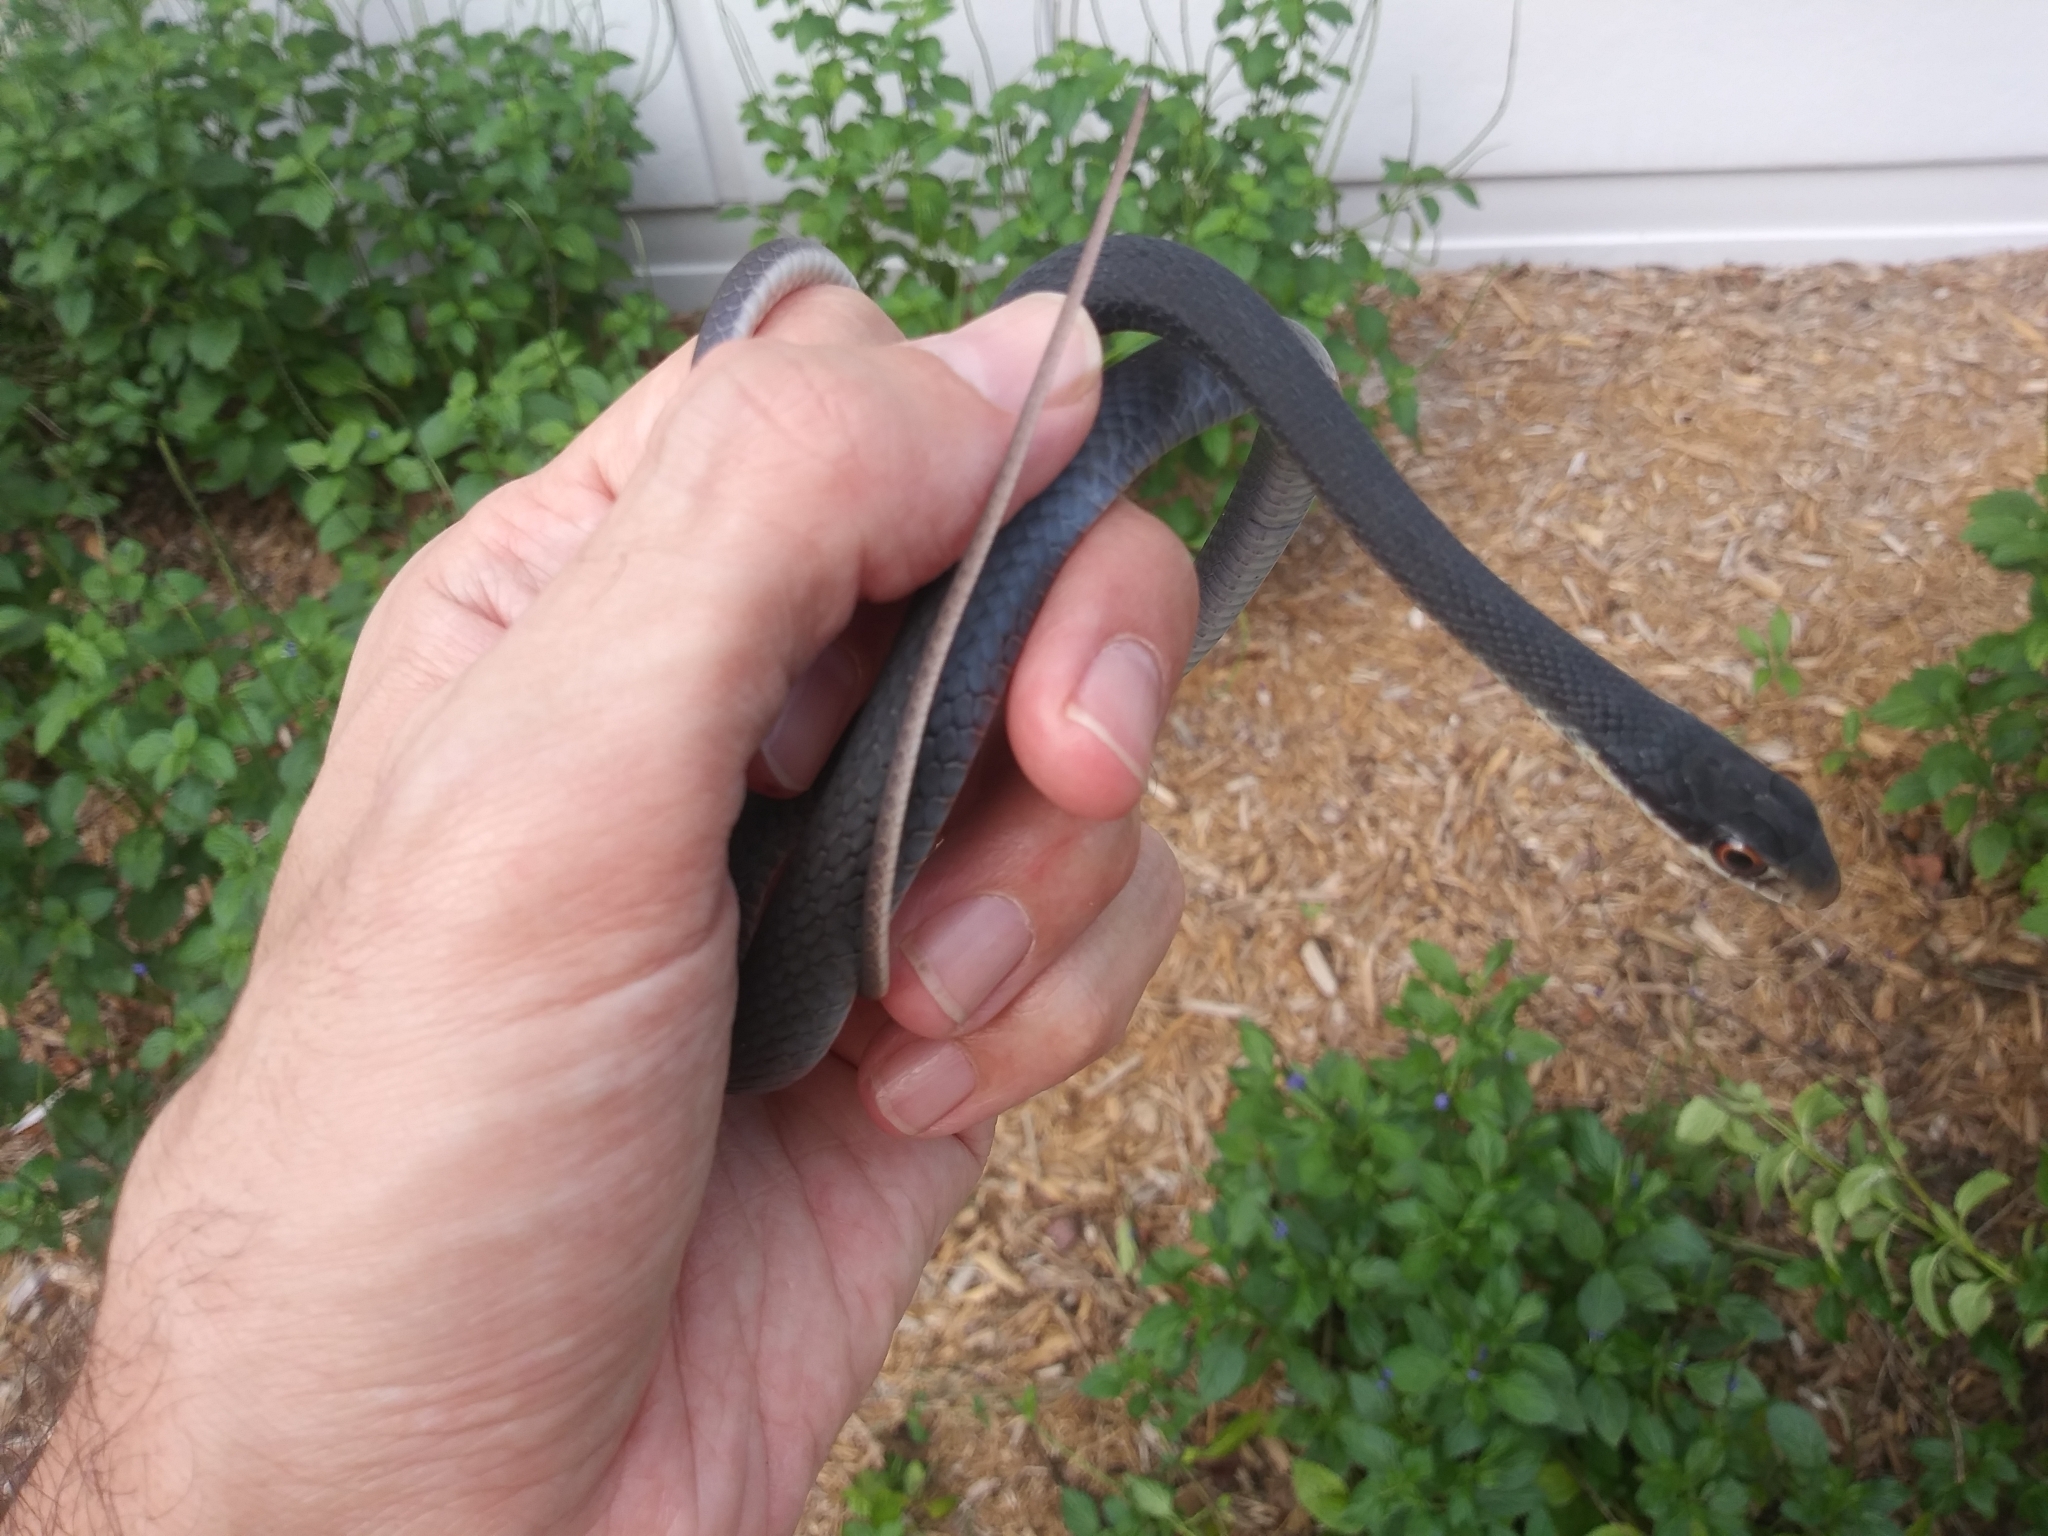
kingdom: Animalia
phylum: Chordata
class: Squamata
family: Colubridae
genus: Coluber
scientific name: Coluber constrictor
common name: Eastern racer
